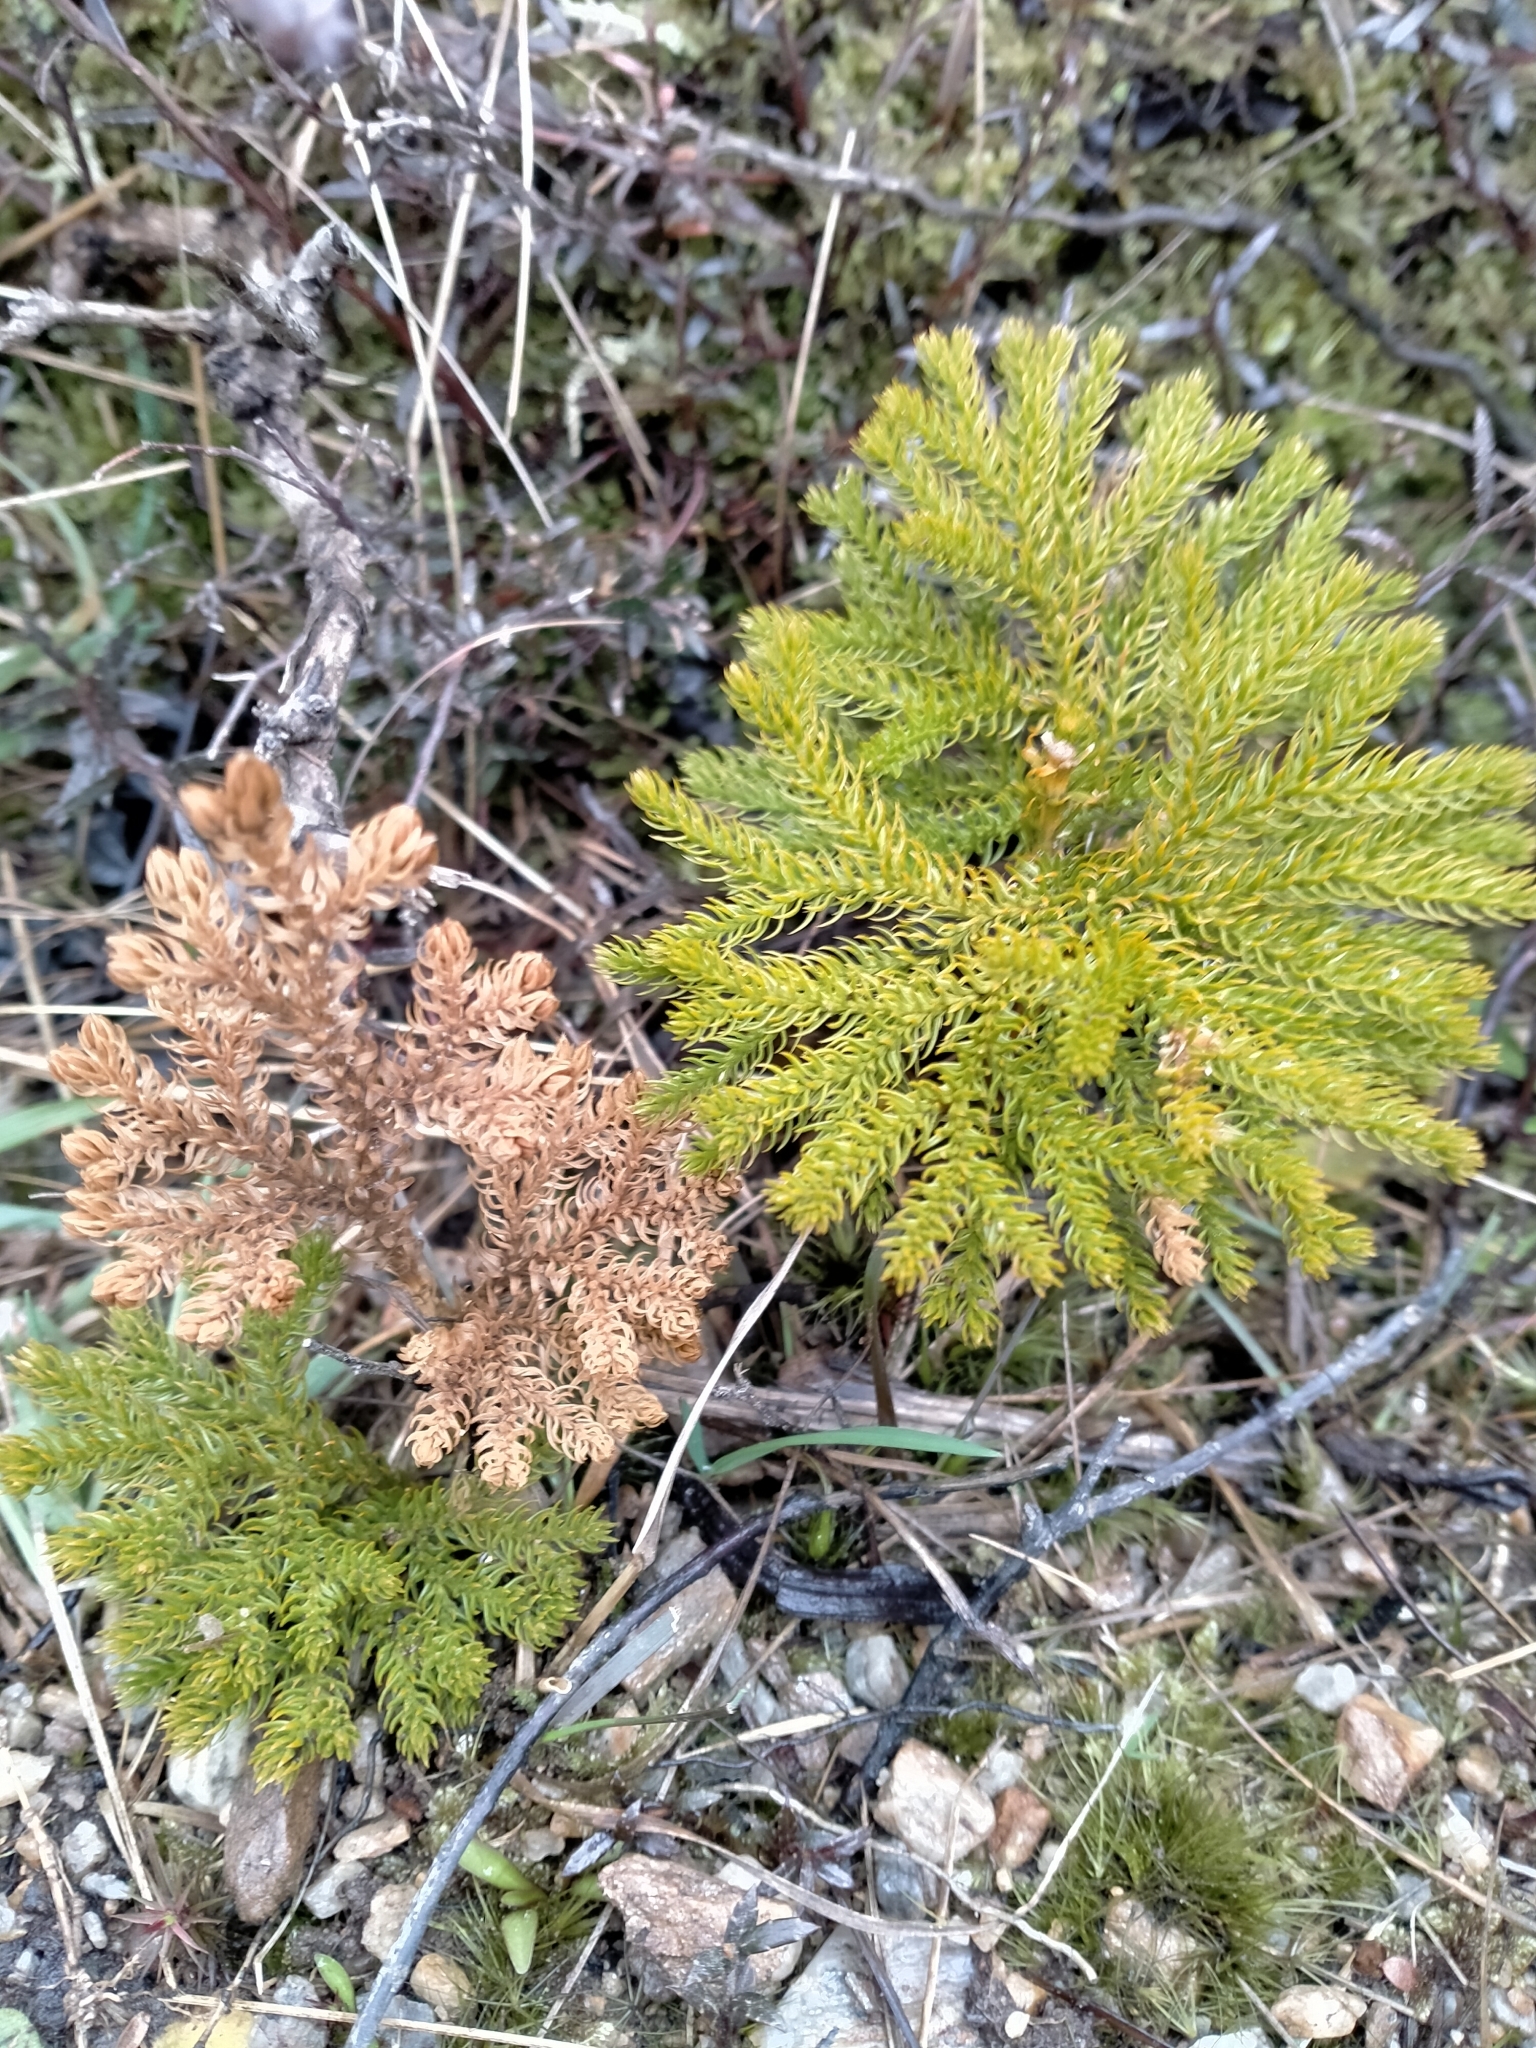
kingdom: Plantae
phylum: Tracheophyta
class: Lycopodiopsida
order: Lycopodiales
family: Lycopodiaceae
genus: Austrolycopodium
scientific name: Austrolycopodium fastigiatum
